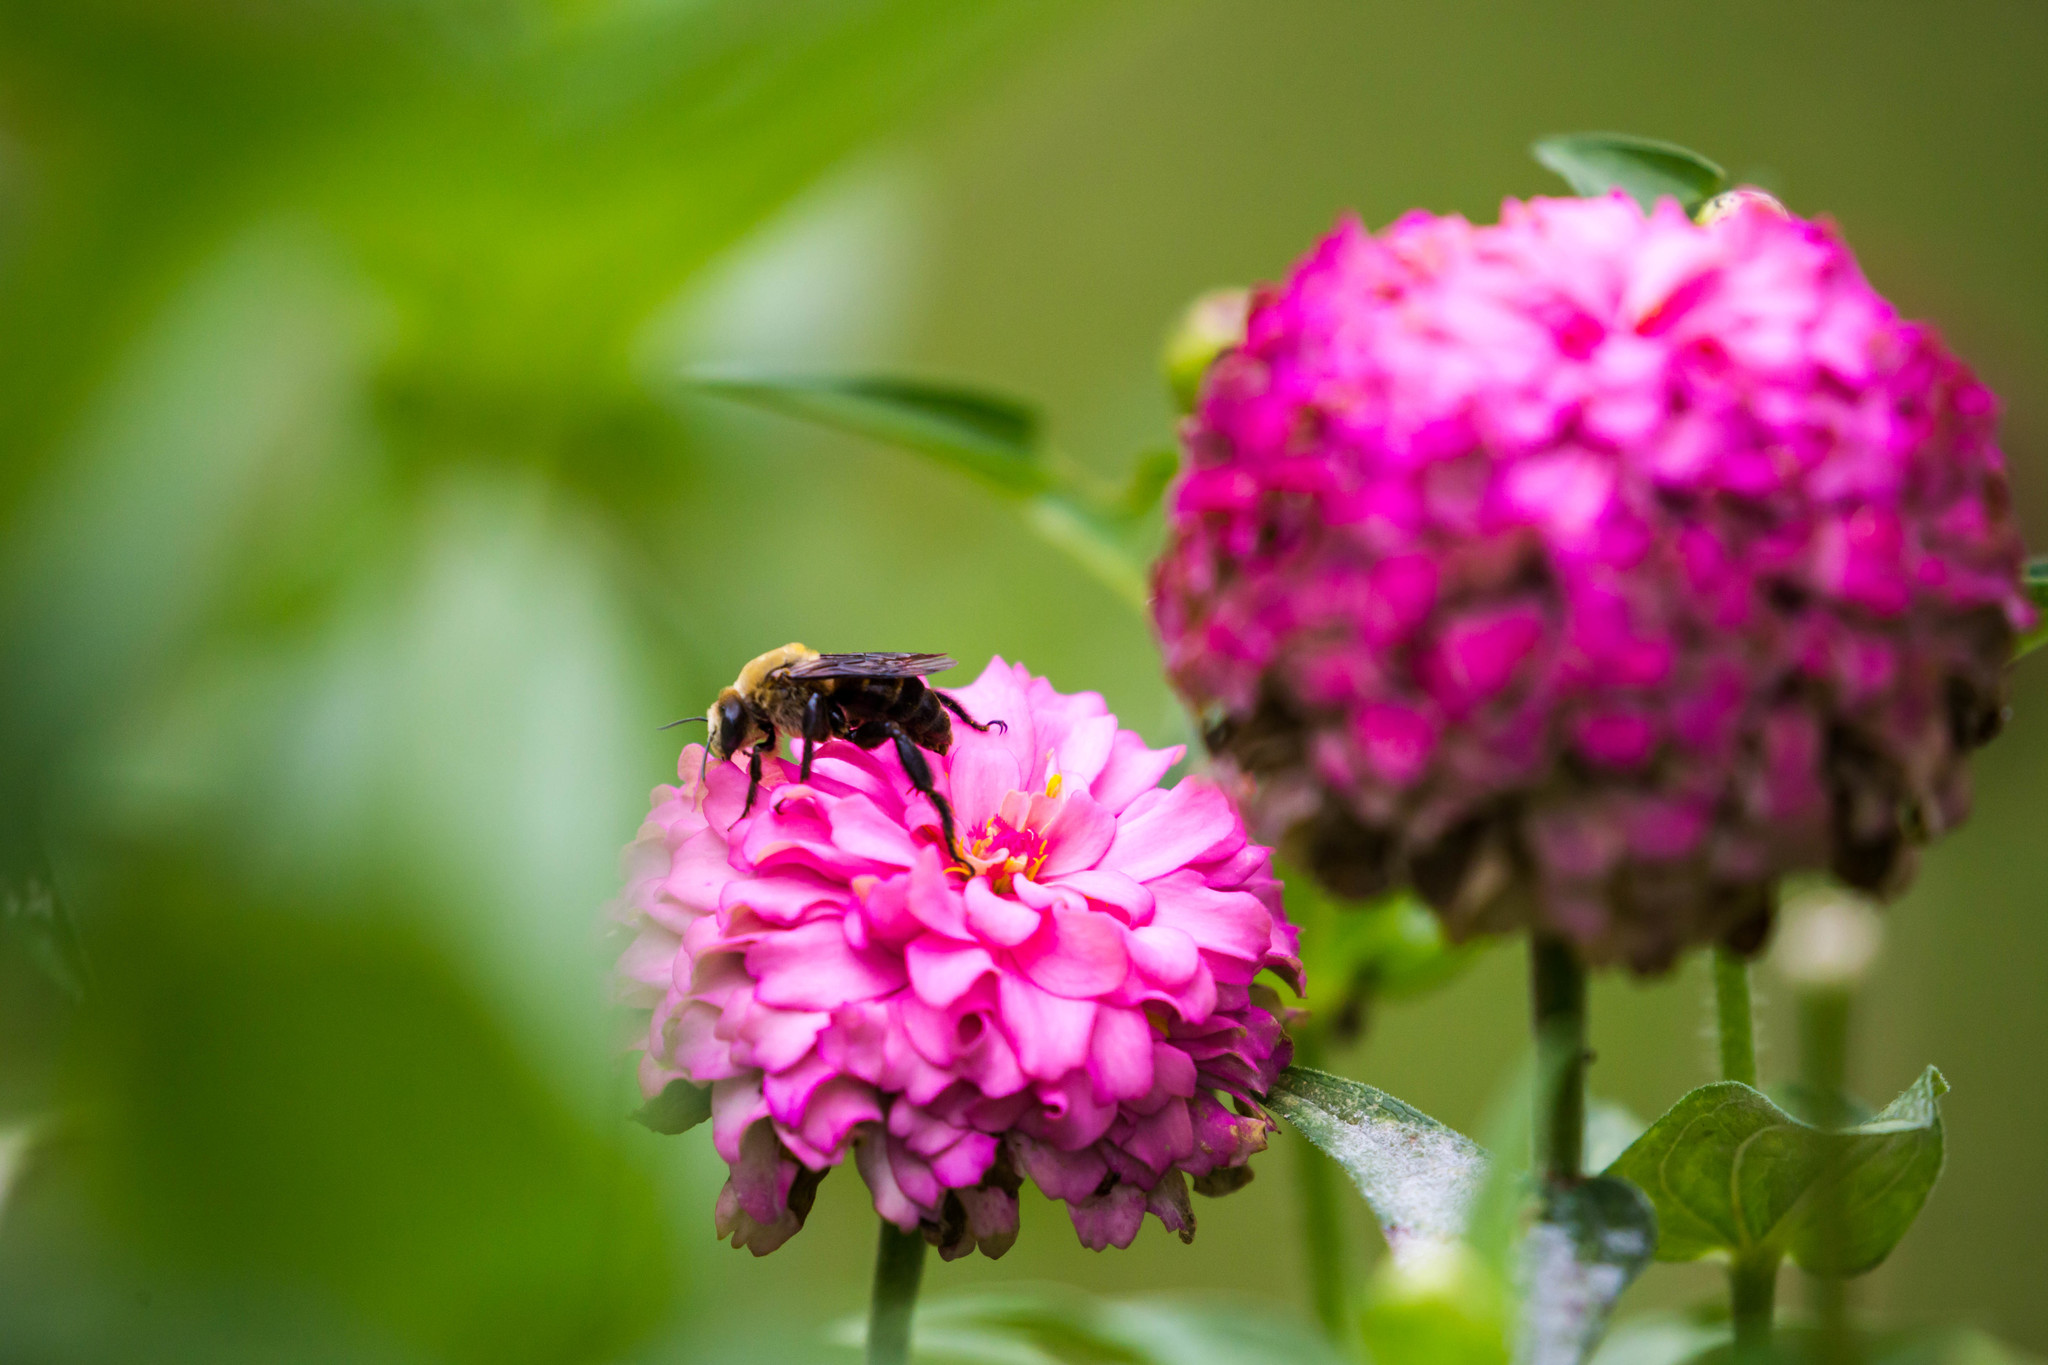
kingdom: Animalia
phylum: Arthropoda
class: Insecta
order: Hymenoptera
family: Apidae
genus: Ptilothrix
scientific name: Ptilothrix bombiformis
